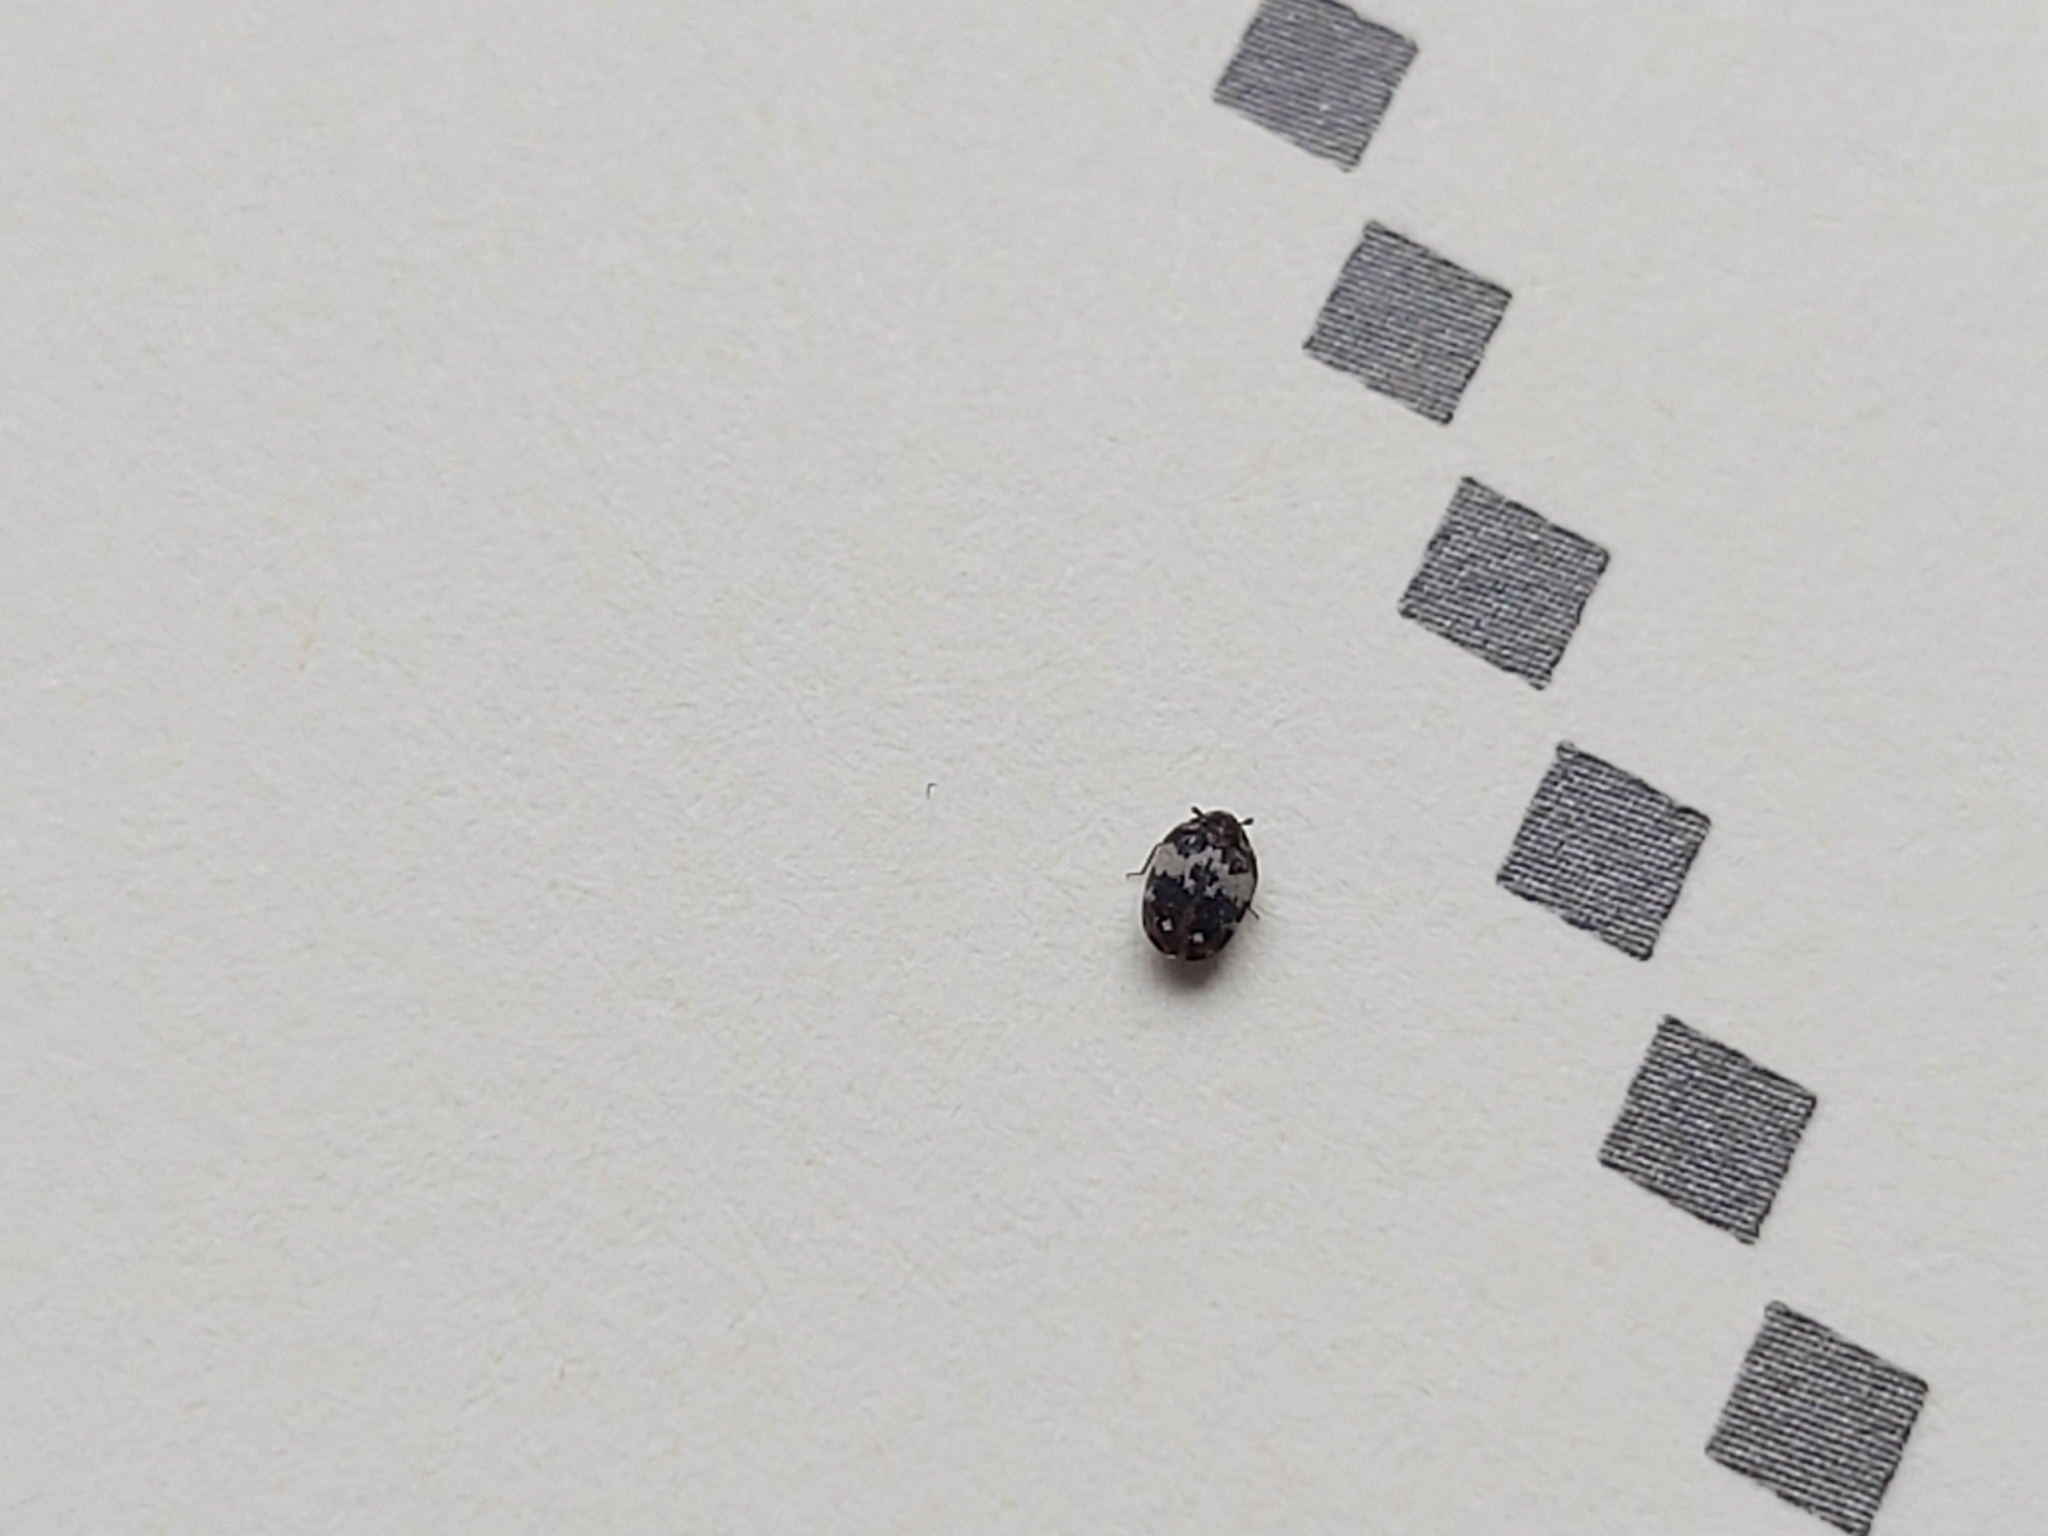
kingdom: Animalia
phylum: Arthropoda
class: Insecta
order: Coleoptera
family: Dermestidae
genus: Anthrenus
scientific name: Anthrenus pimpinellae
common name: Dermestid beetle
